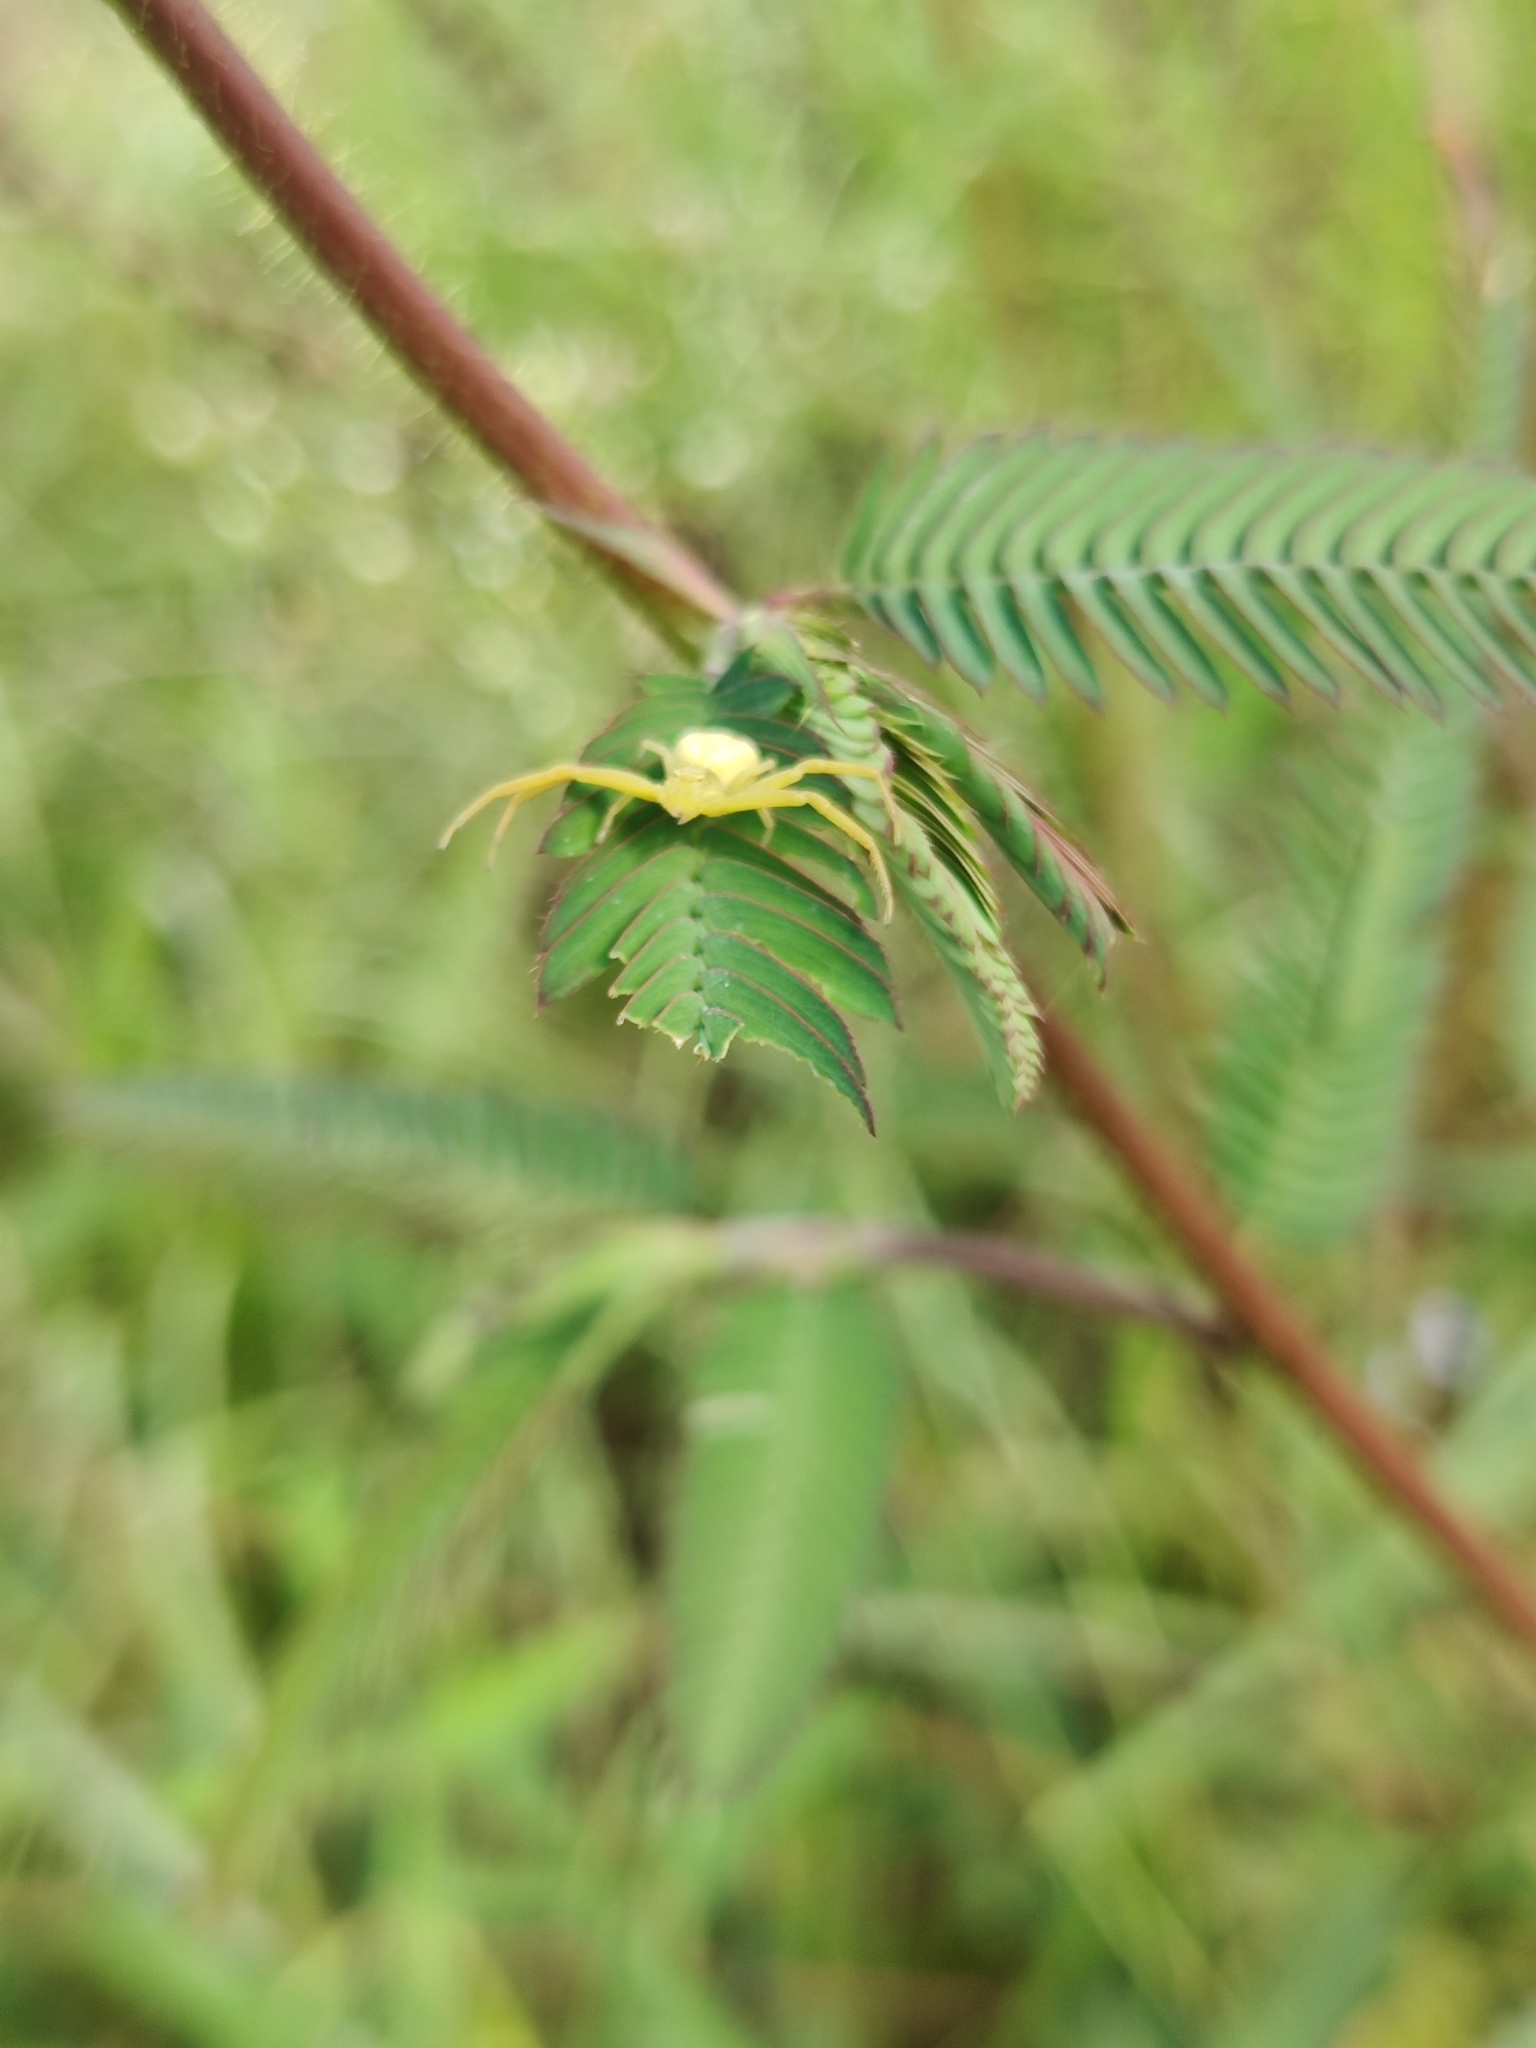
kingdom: Animalia
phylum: Arthropoda
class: Arachnida
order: Araneae
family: Thomisidae
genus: Misumessus
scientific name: Misumessus oblongus
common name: American green crab spider
